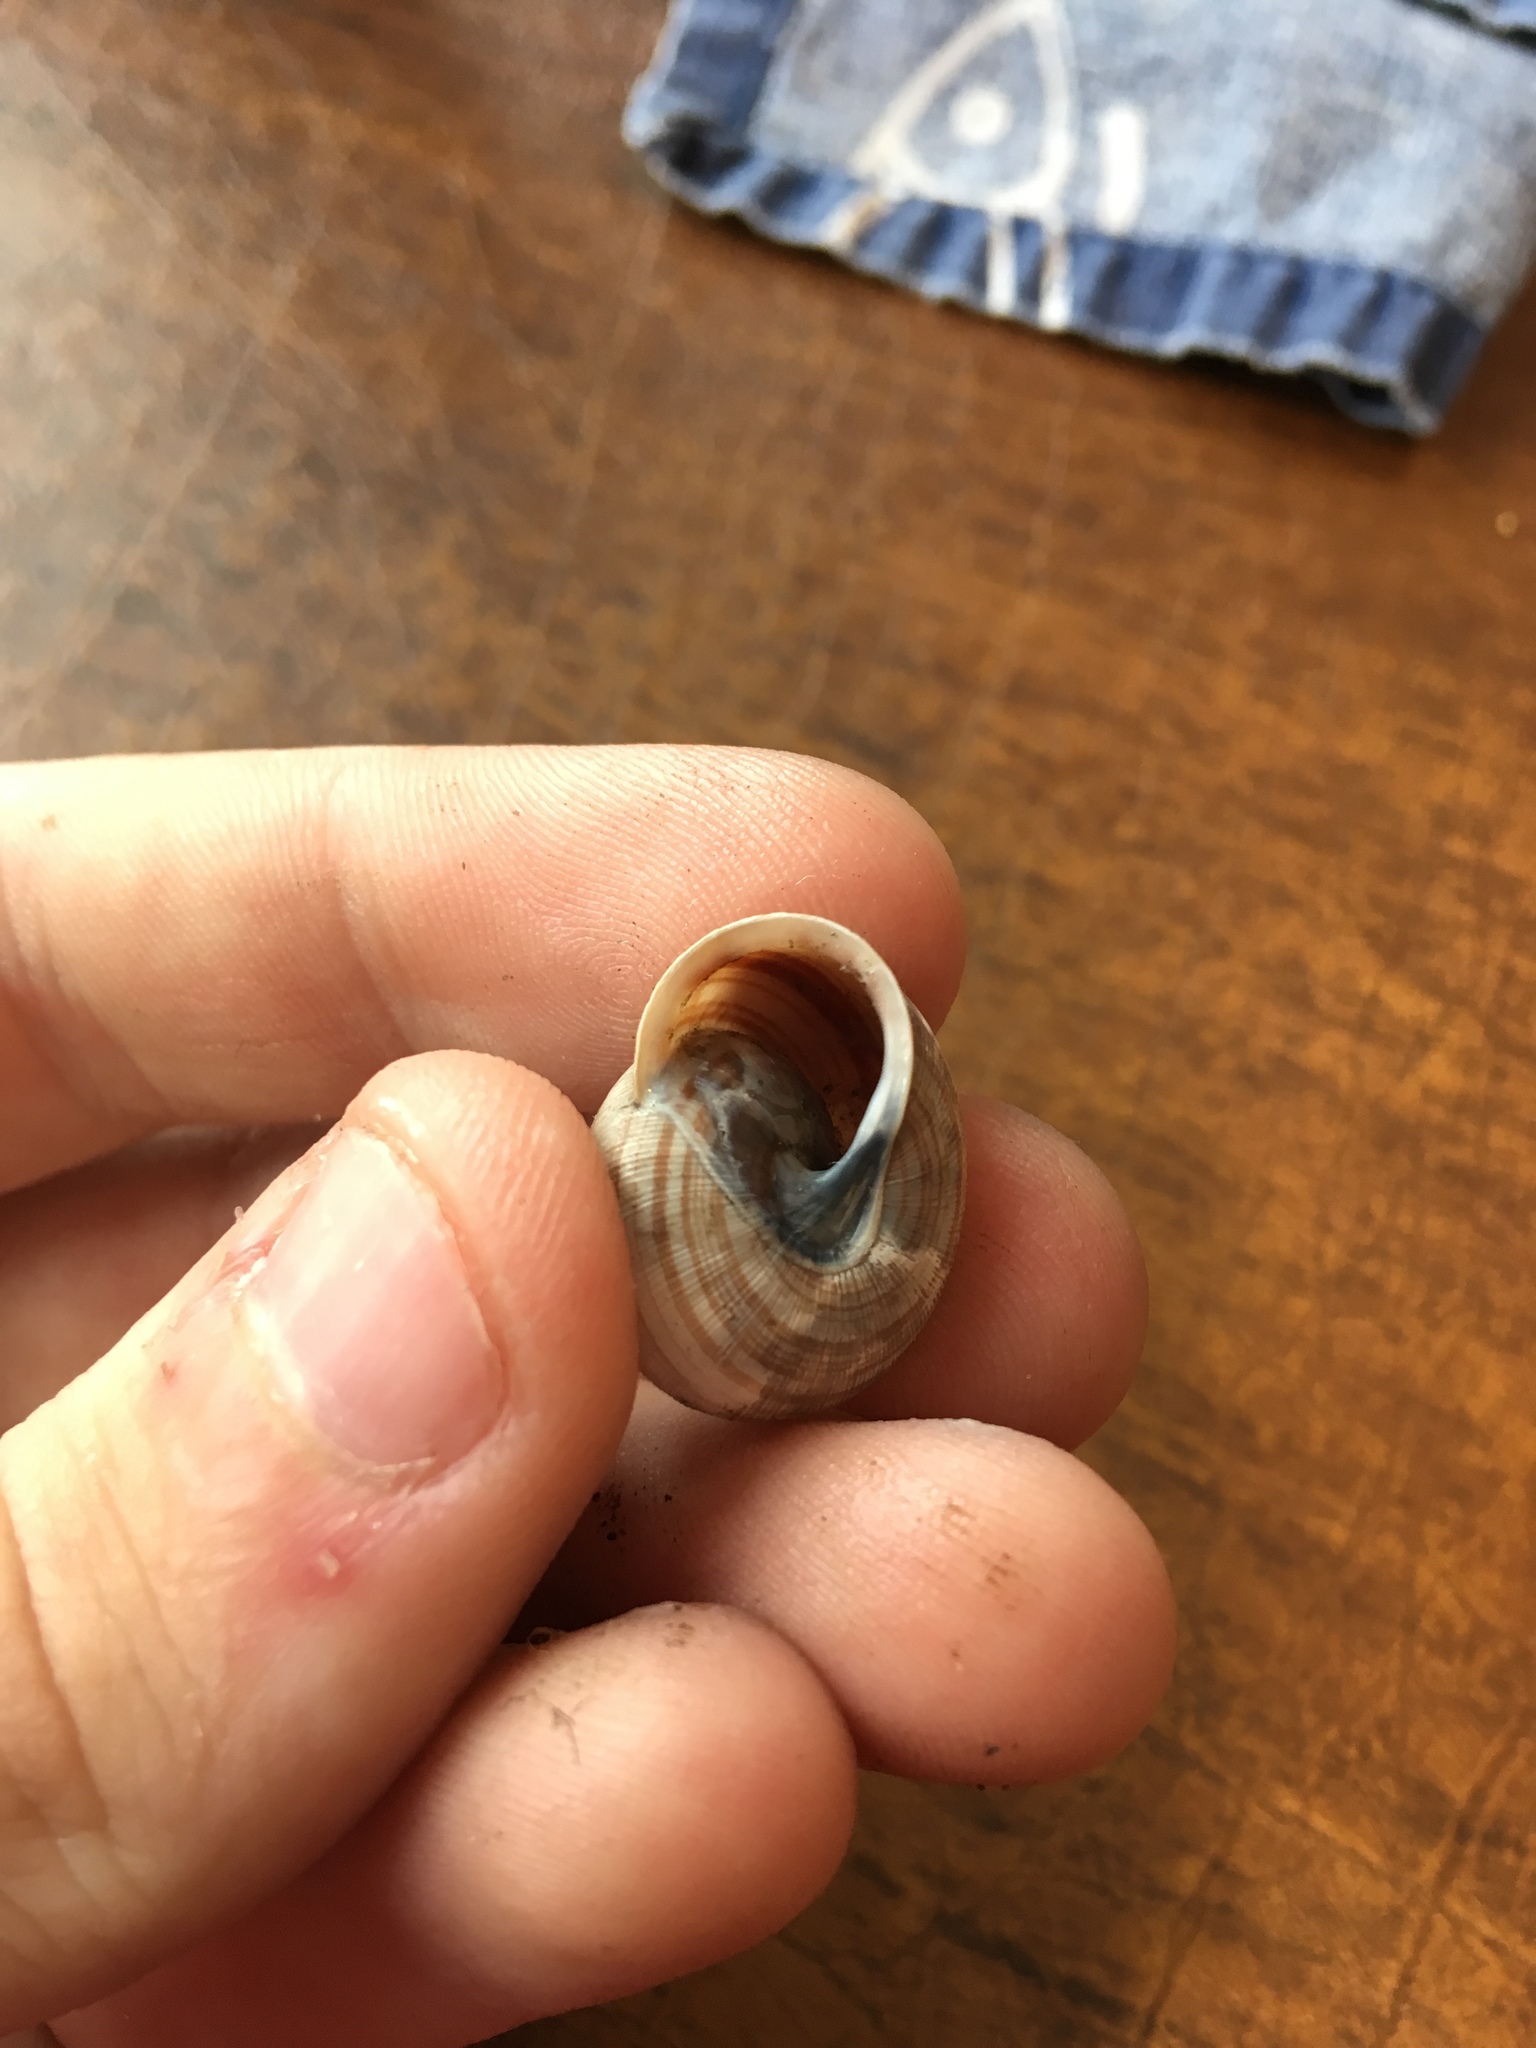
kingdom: Animalia
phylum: Mollusca
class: Gastropoda
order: Stylommatophora
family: Polygyridae
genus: Webbhelix
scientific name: Webbhelix multilineata
